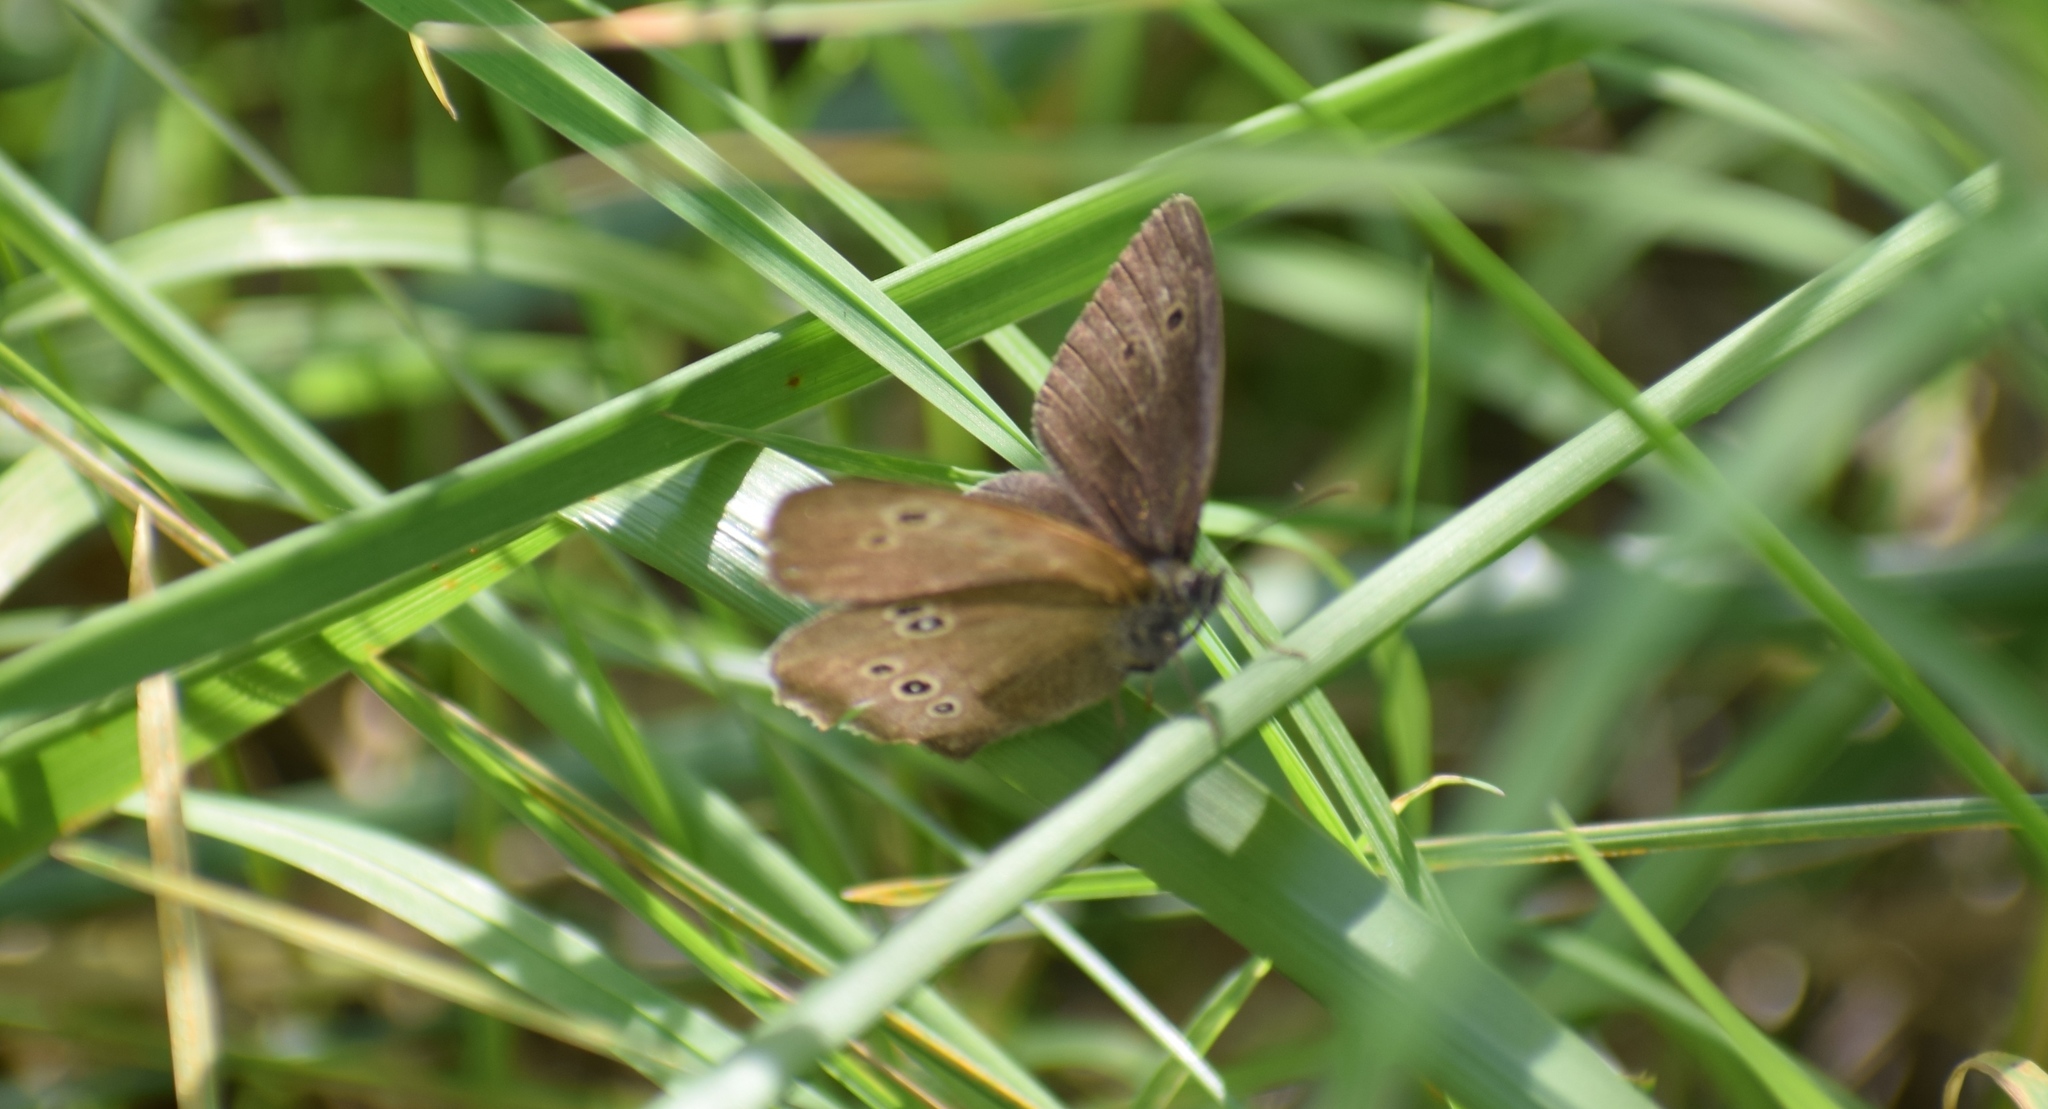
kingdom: Animalia
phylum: Arthropoda
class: Insecta
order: Lepidoptera
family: Nymphalidae
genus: Aphantopus
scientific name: Aphantopus hyperantus
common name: Ringlet
